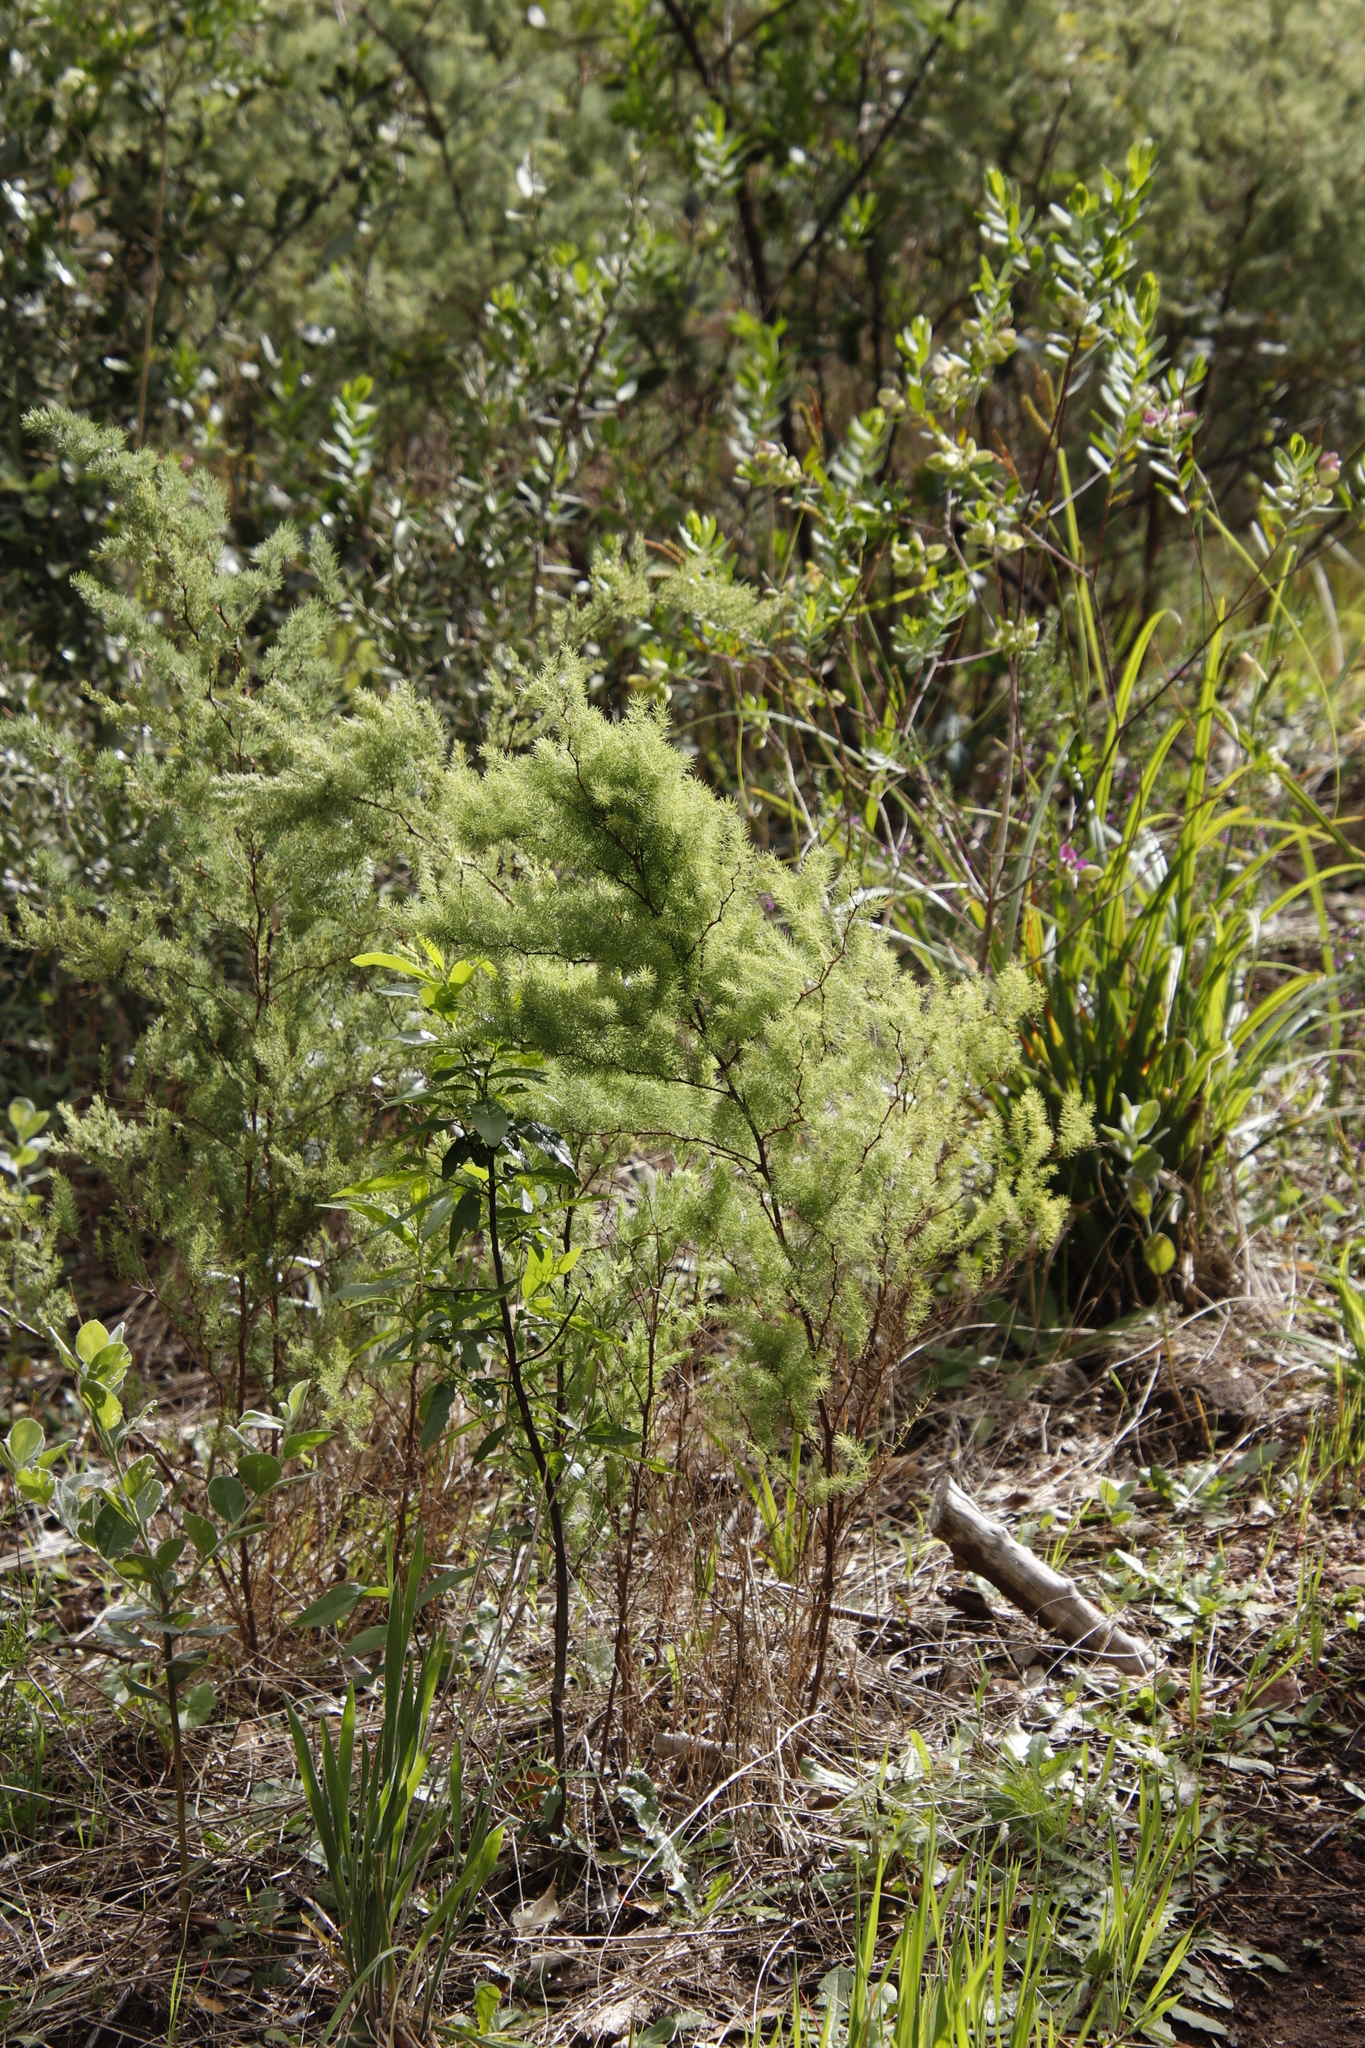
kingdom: Plantae
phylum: Tracheophyta
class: Liliopsida
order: Asparagales
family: Asparagaceae
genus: Asparagus
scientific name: Asparagus rubicundus
